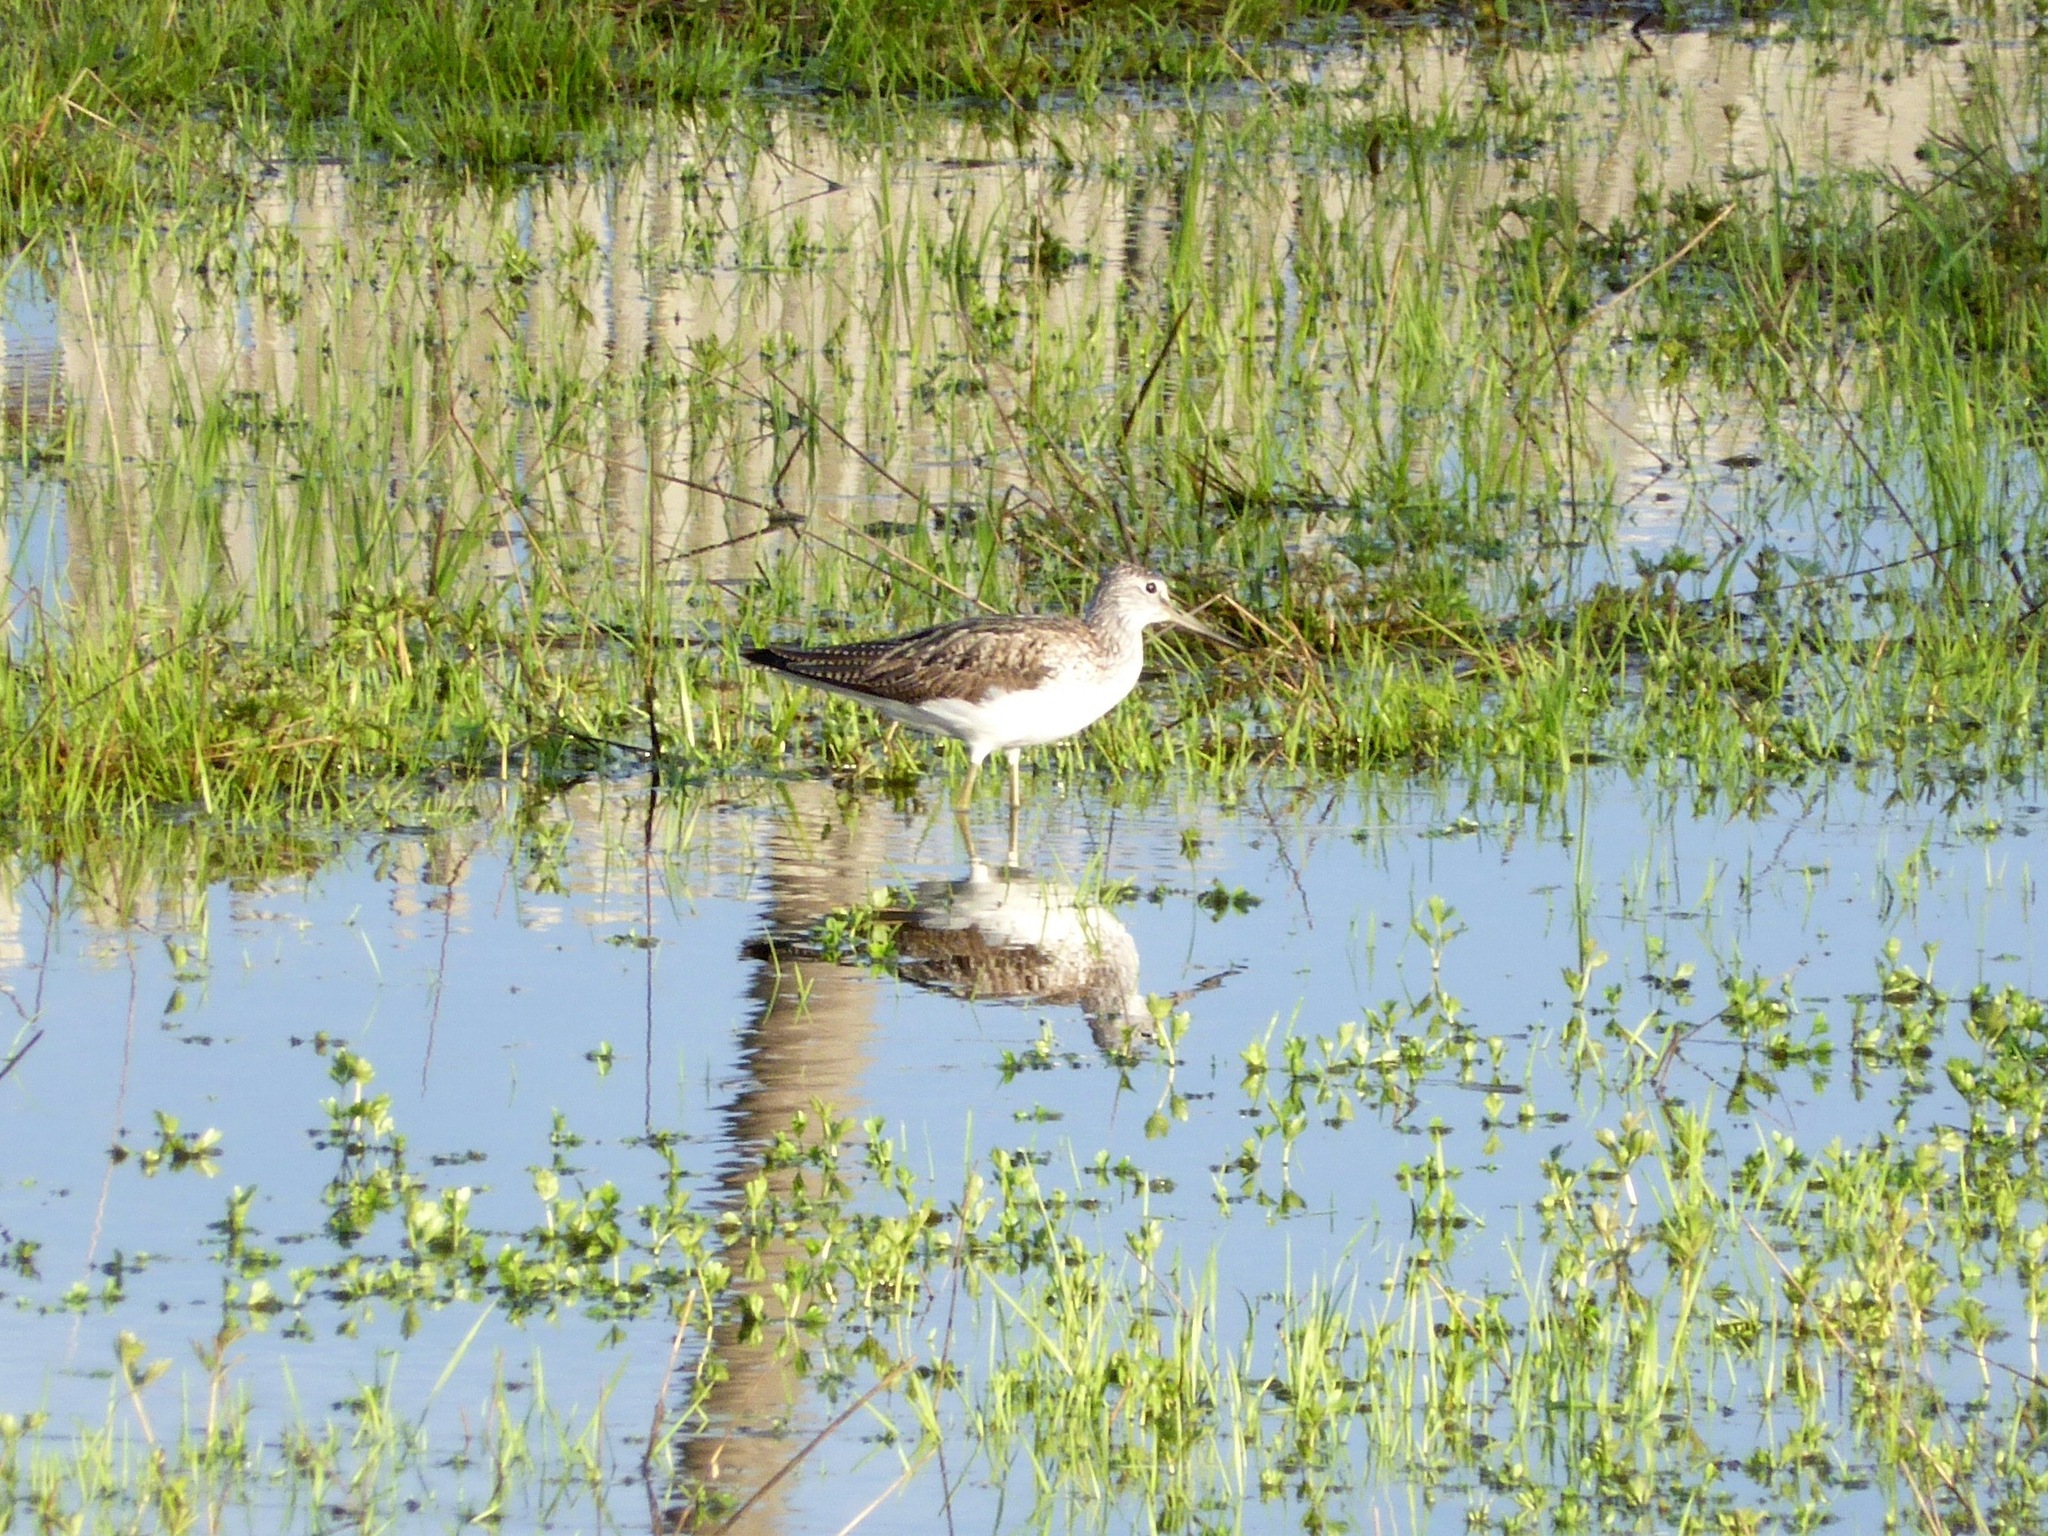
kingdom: Animalia
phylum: Chordata
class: Aves
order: Charadriiformes
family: Scolopacidae
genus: Tringa
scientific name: Tringa nebularia
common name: Common greenshank
